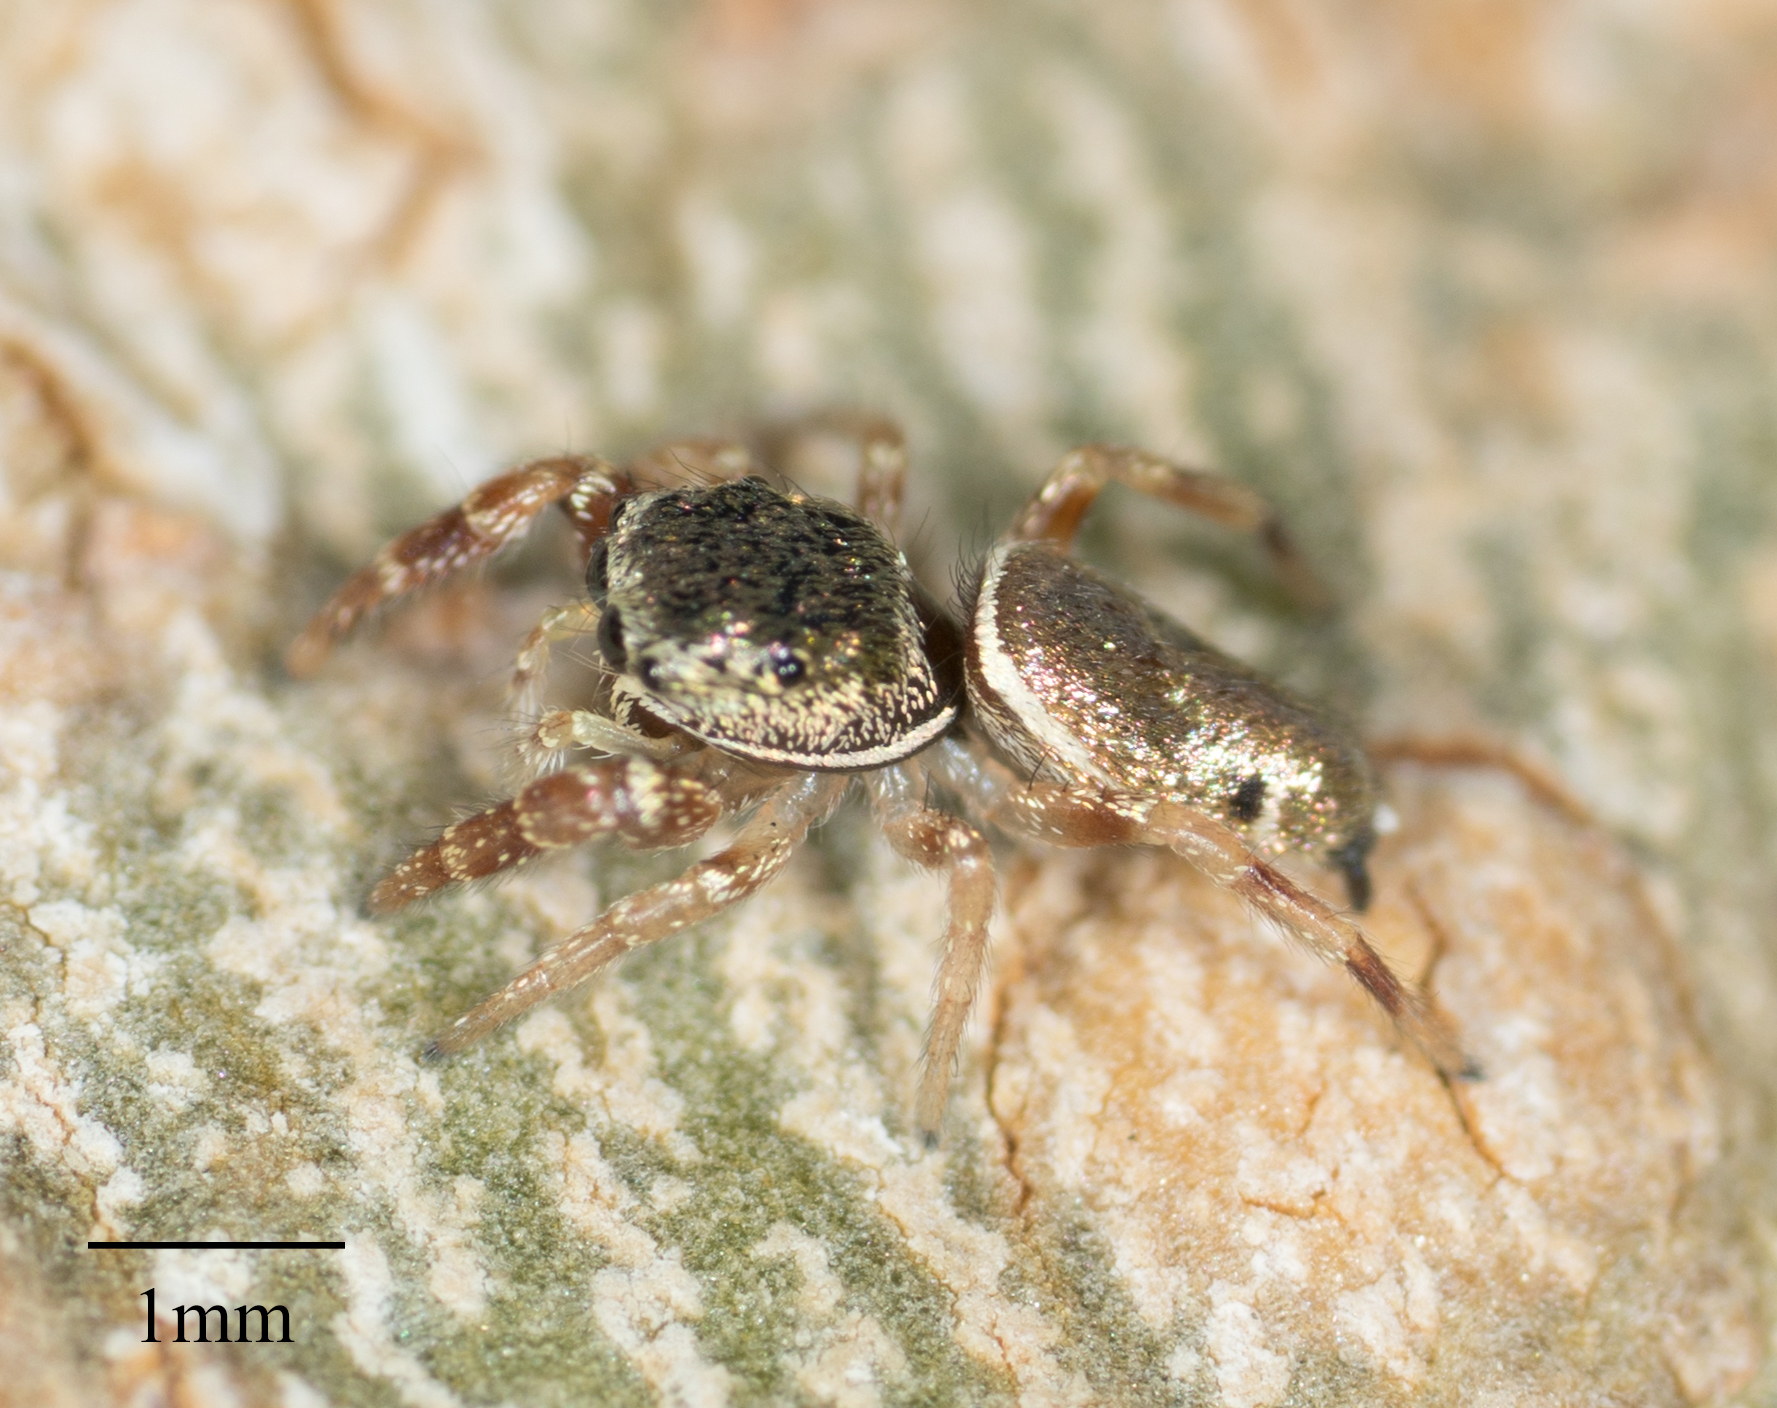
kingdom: Animalia
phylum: Arthropoda
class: Arachnida
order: Araneae
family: Salticidae
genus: Sassacus
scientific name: Sassacus vitis
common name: Jumping spiders
